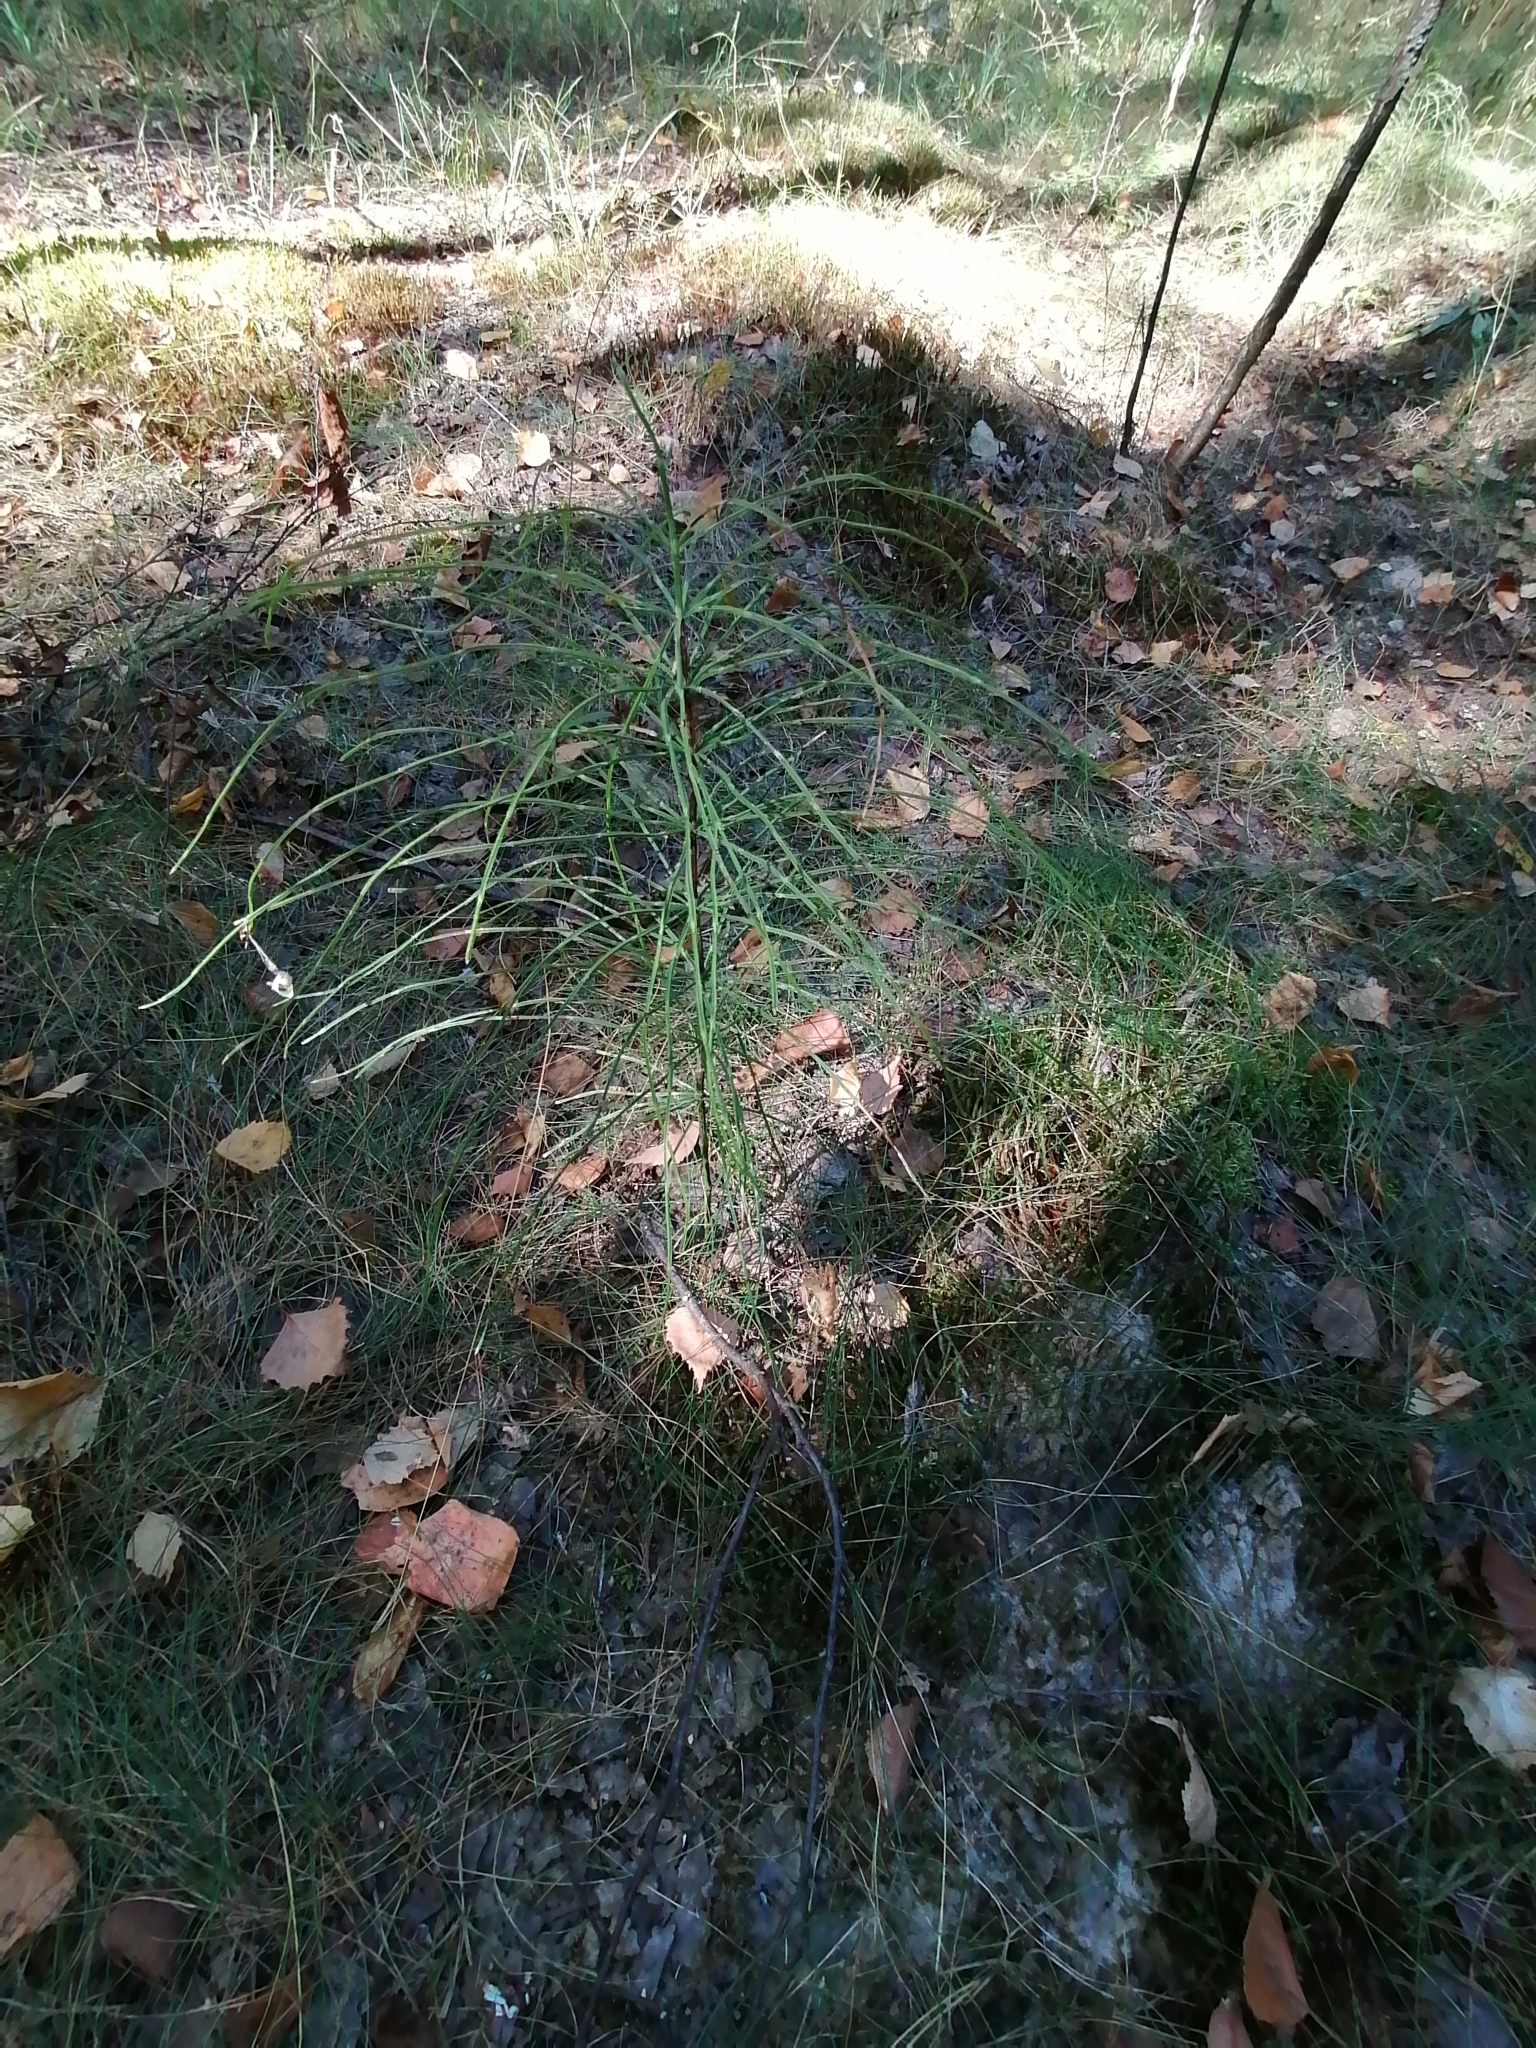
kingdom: Plantae
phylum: Tracheophyta
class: Polypodiopsida
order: Equisetales
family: Equisetaceae
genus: Equisetum
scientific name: Equisetum arvense
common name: Field horsetail
